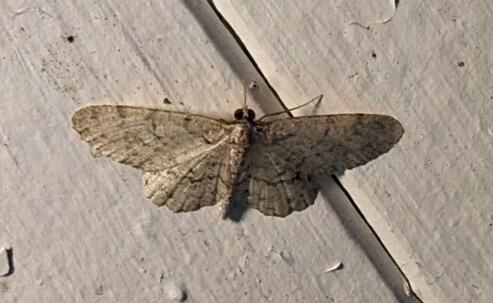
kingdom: Animalia
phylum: Arthropoda
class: Insecta
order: Lepidoptera
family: Geometridae
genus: Protoboarmia
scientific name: Protoboarmia porcelaria
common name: Porcelain gray
